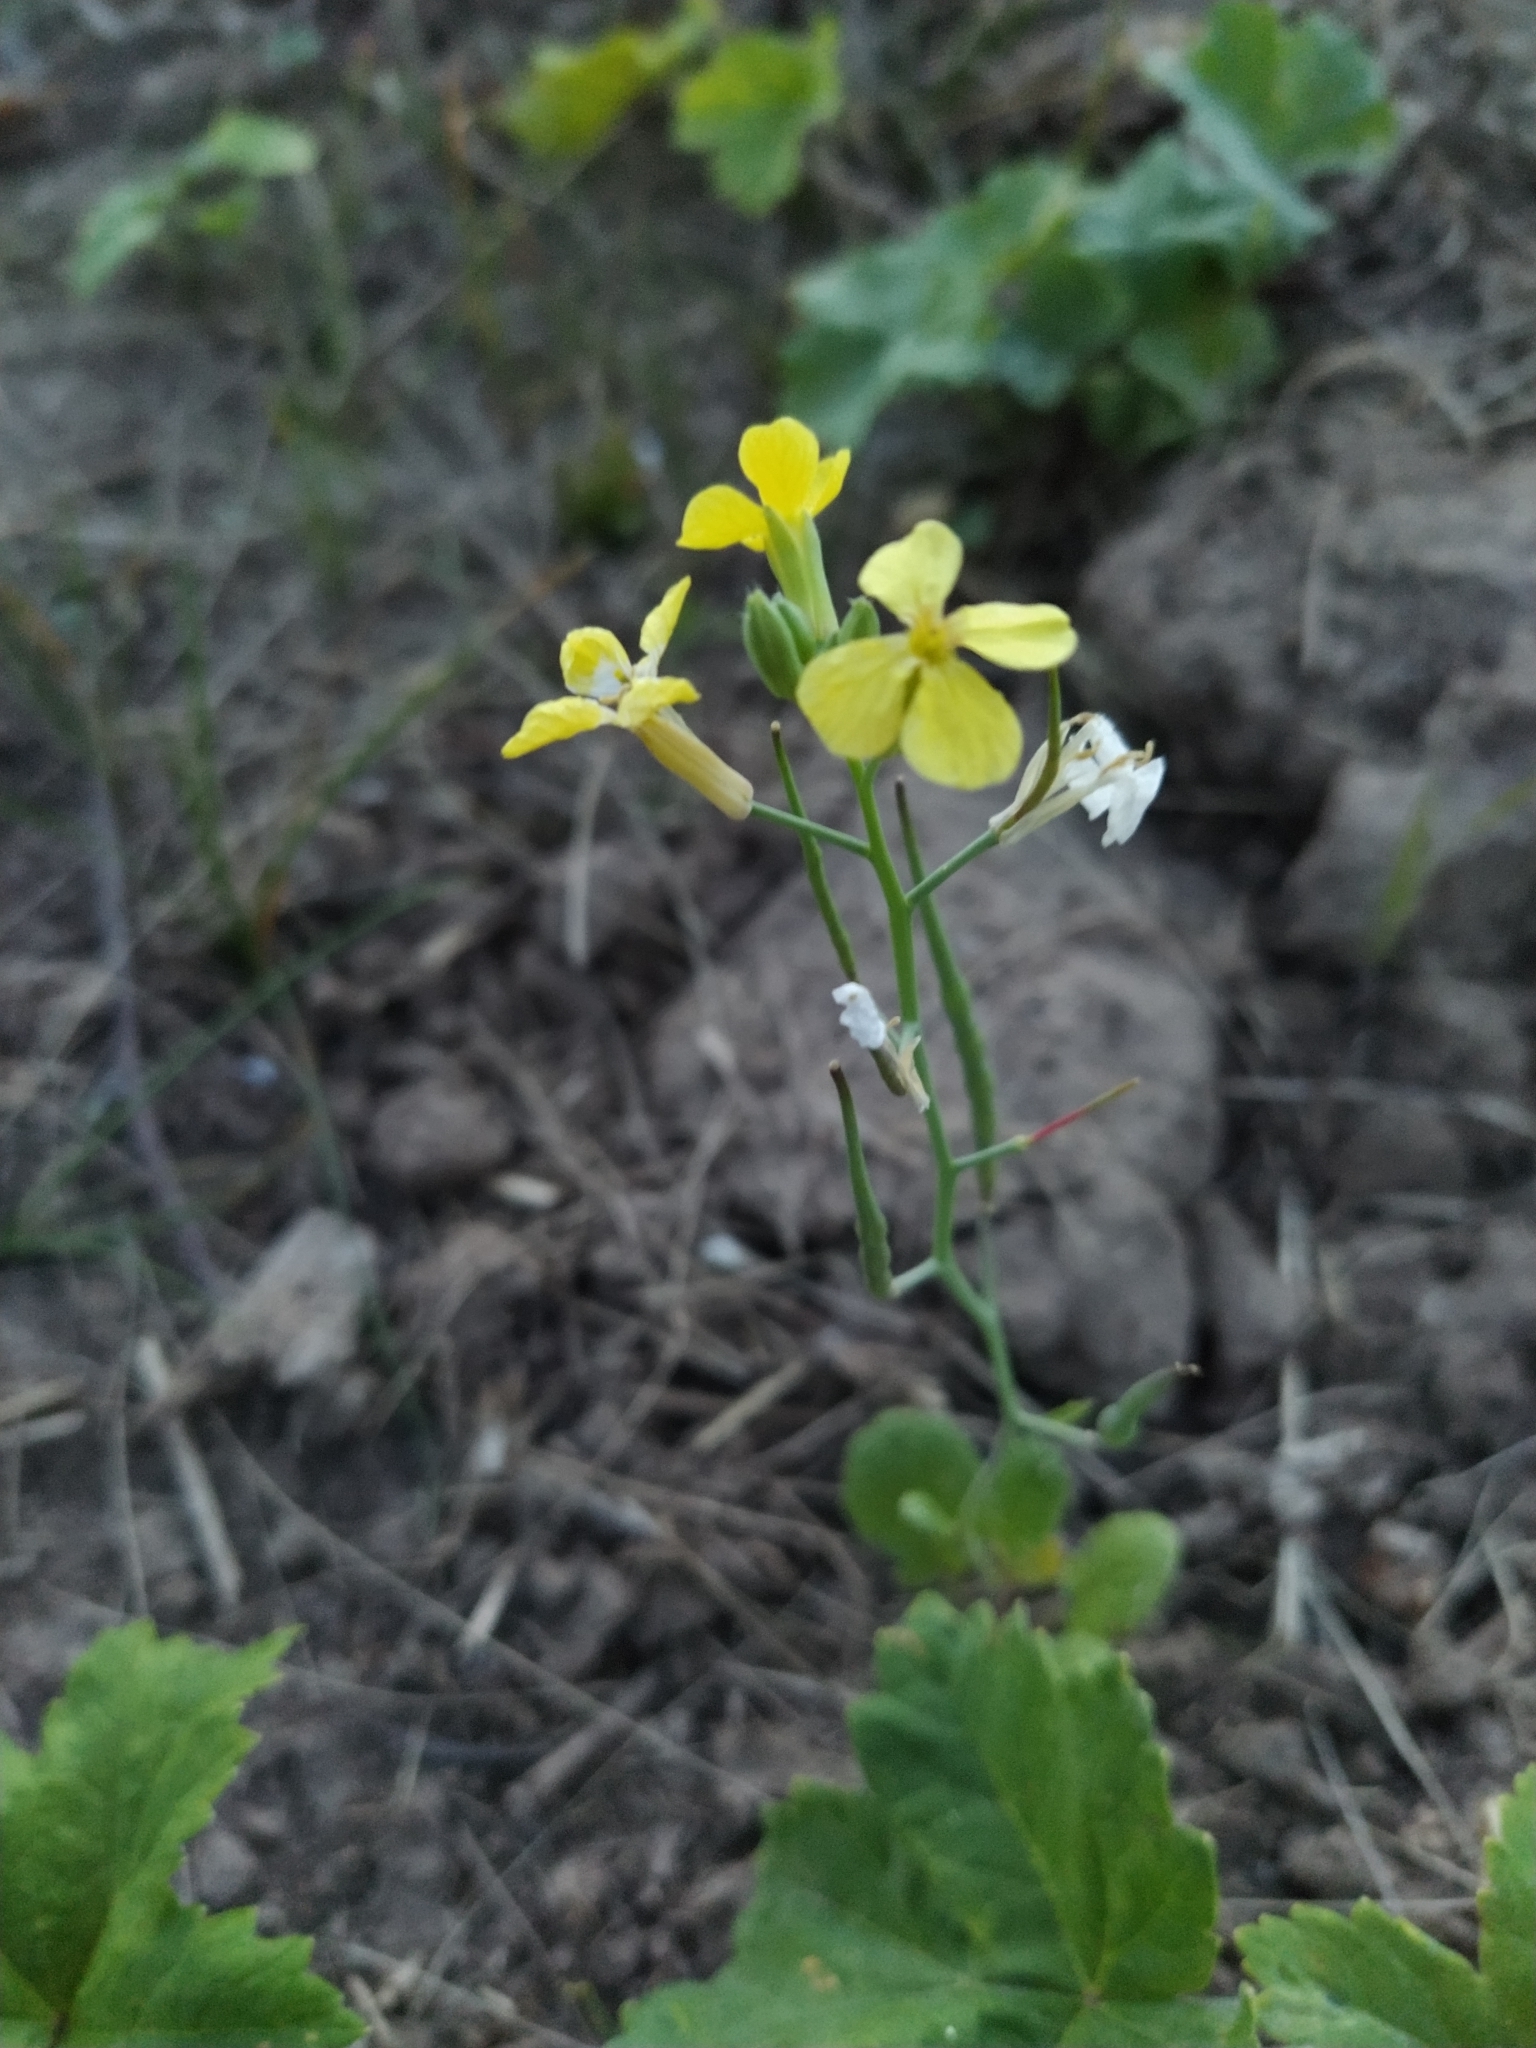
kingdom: Plantae
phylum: Tracheophyta
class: Magnoliopsida
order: Brassicales
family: Brassicaceae
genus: Raphanus
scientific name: Raphanus raphanistrum
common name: Wild radish
